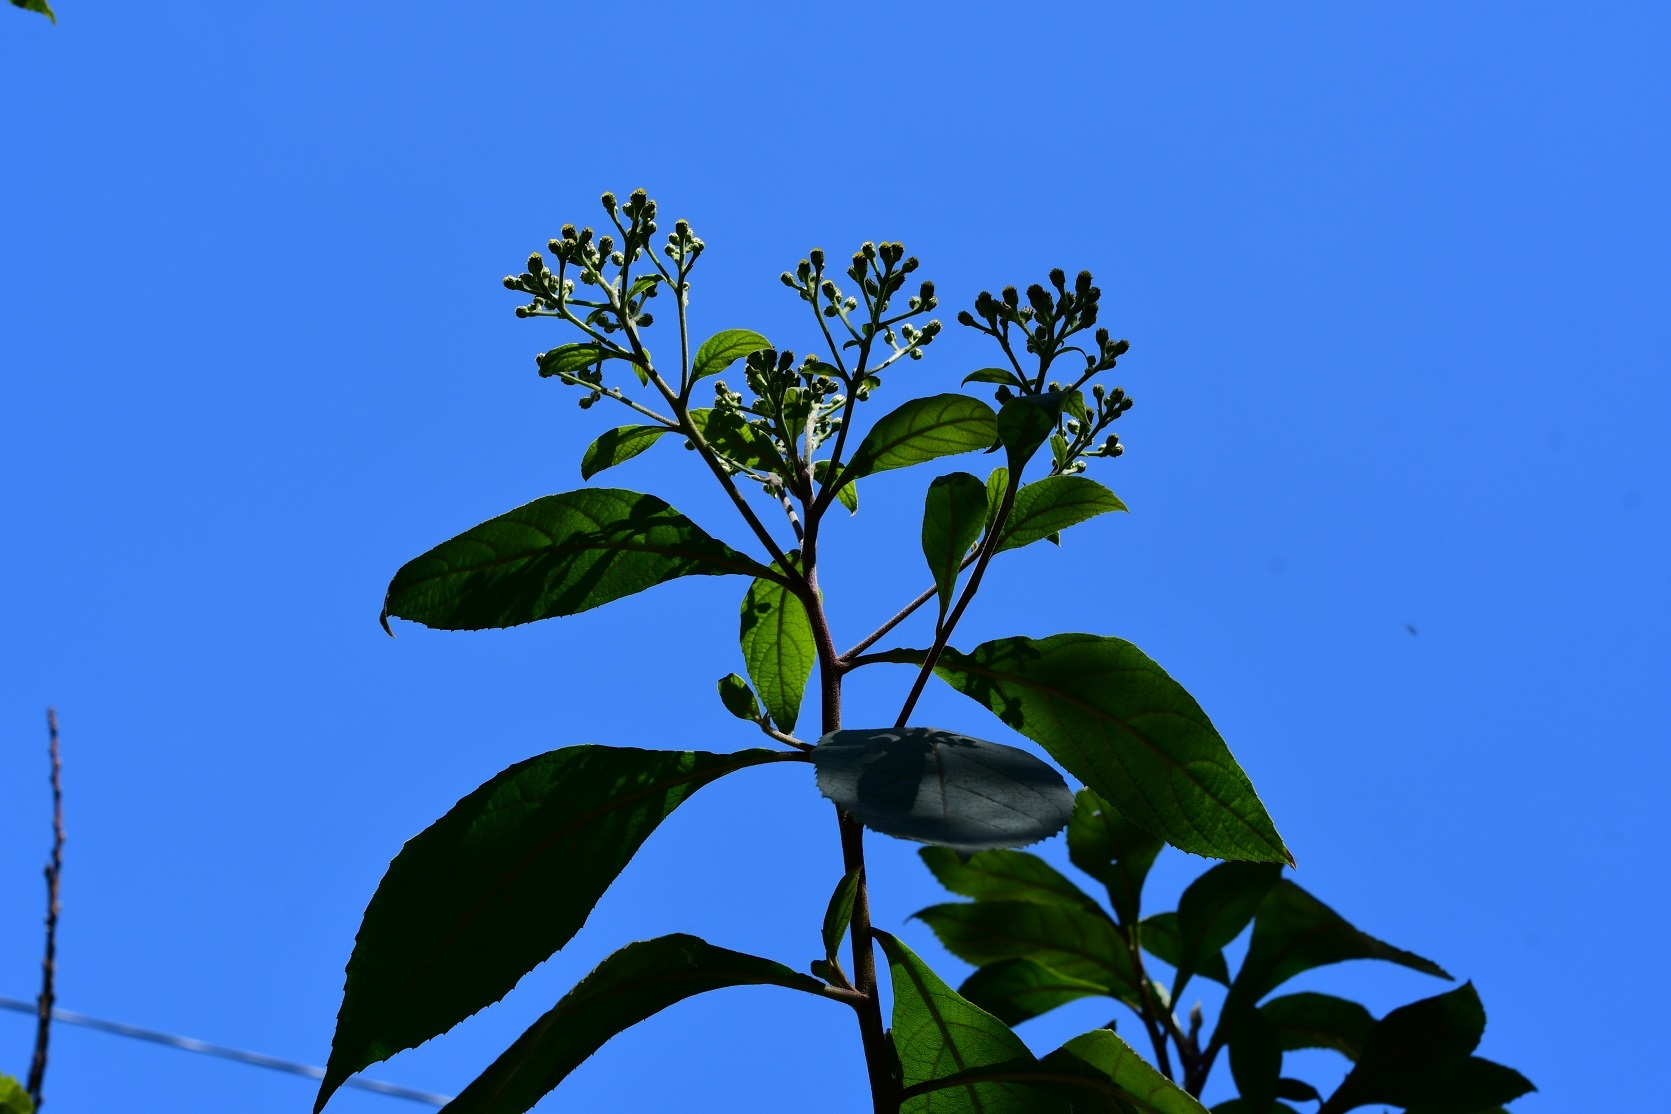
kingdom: Plantae
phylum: Tracheophyta
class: Magnoliopsida
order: Asterales
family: Asteraceae
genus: Verbesina
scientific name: Verbesina pleistocephala
